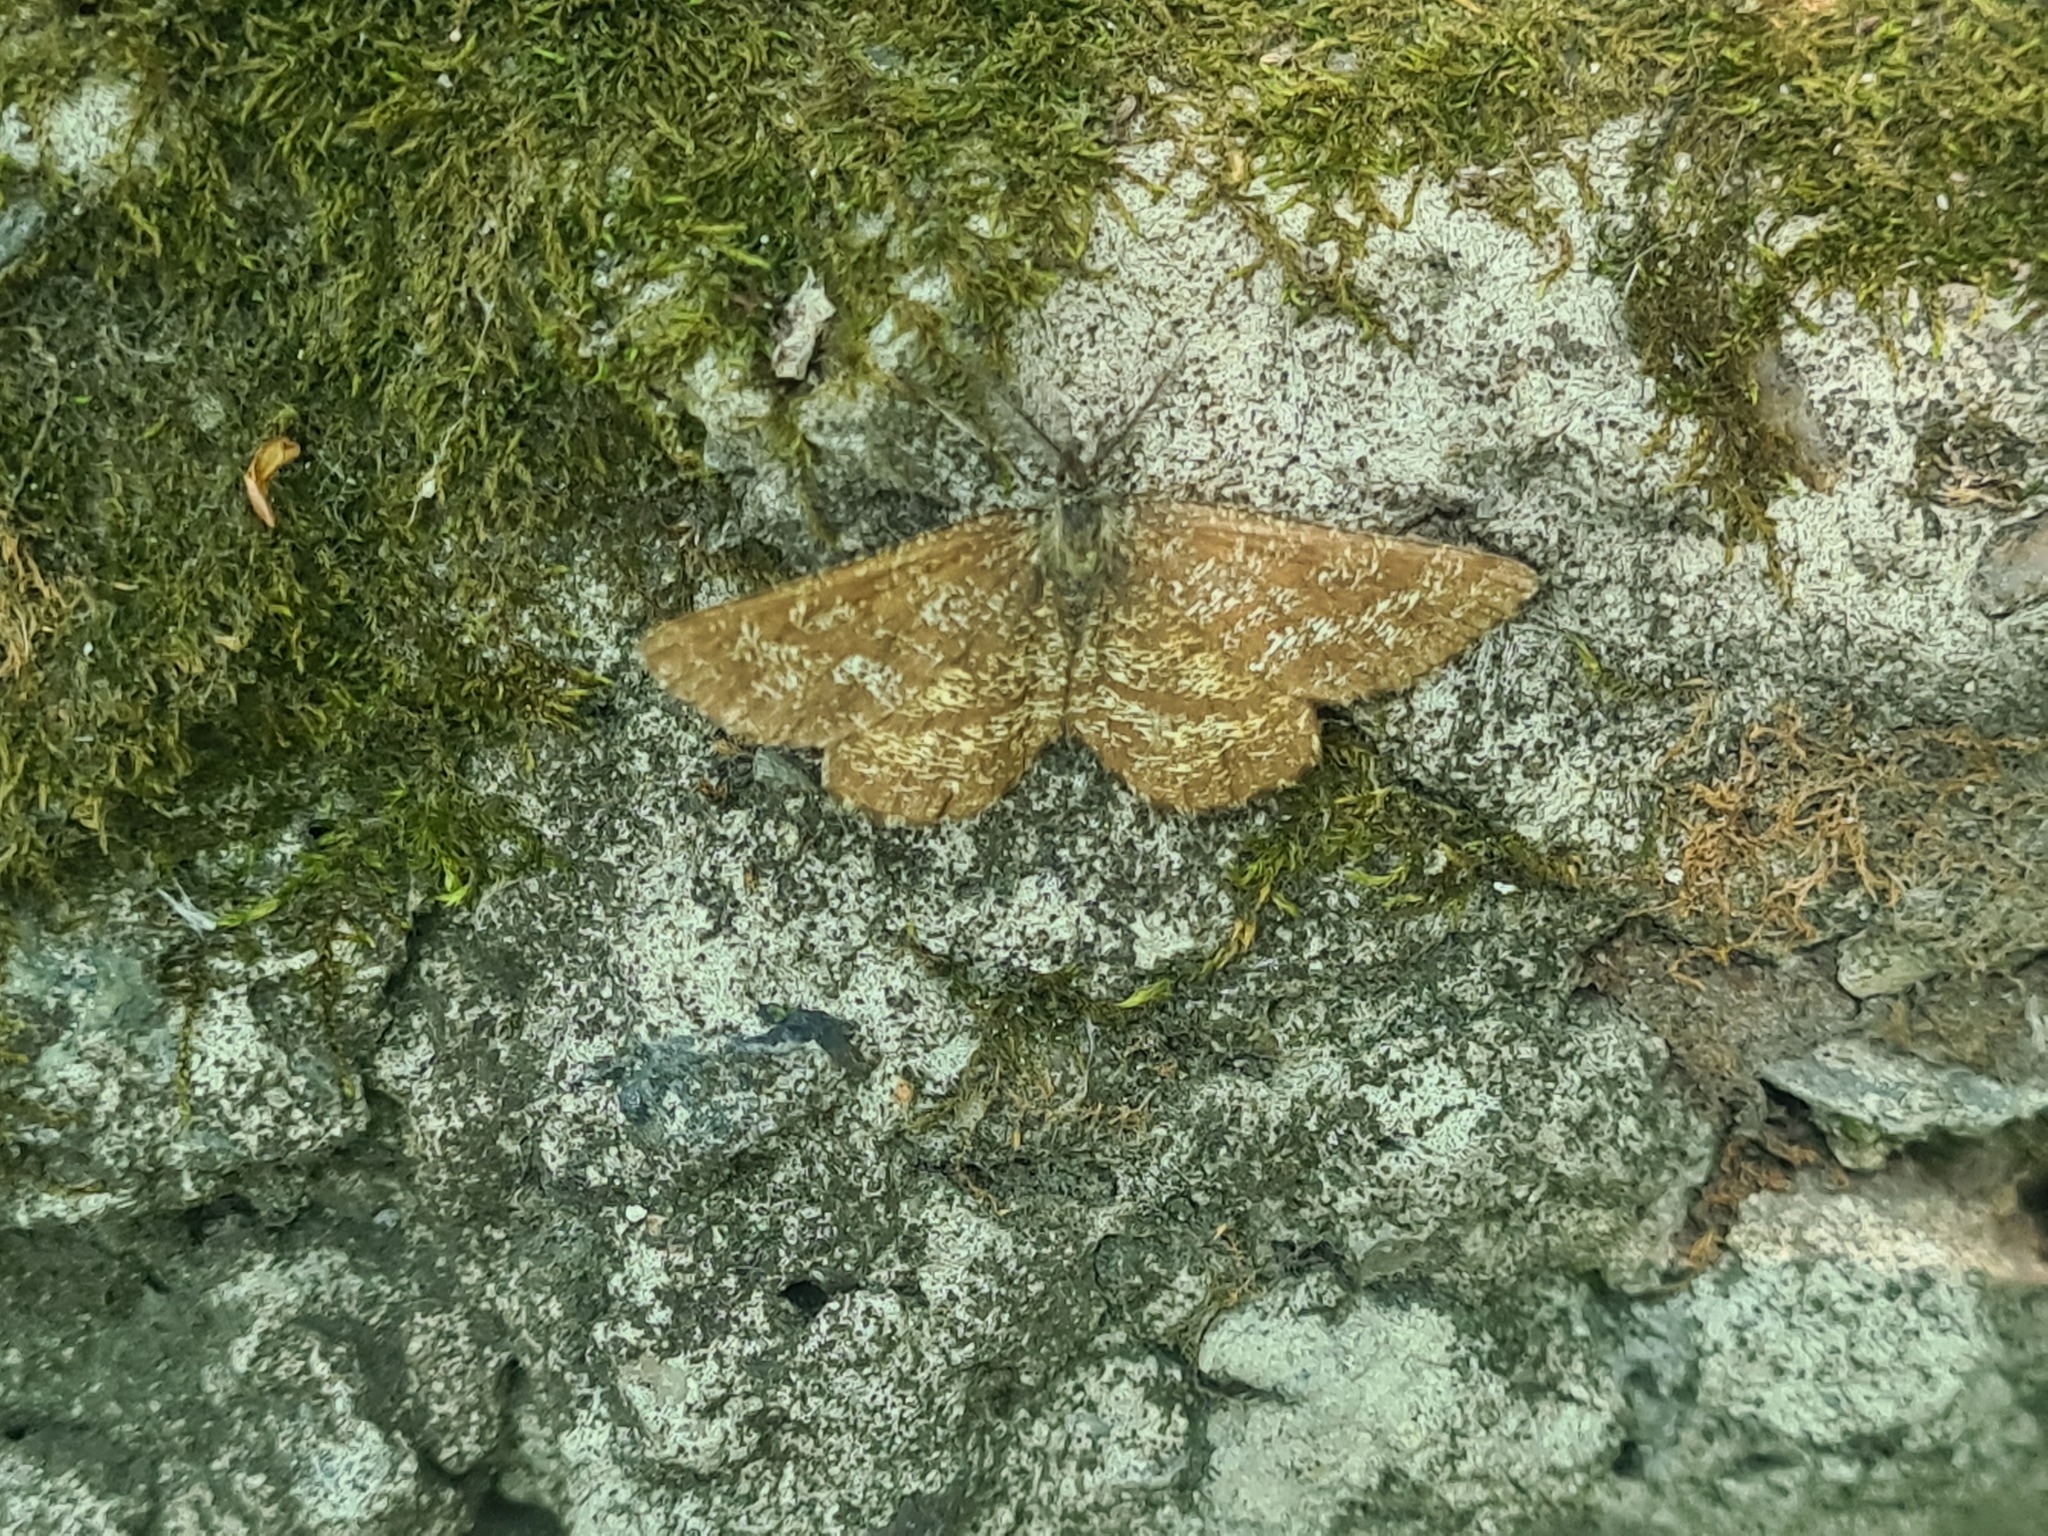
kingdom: Animalia
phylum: Arthropoda
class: Insecta
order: Lepidoptera
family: Geometridae
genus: Ematurga
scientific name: Ematurga atomaria
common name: Common heath
